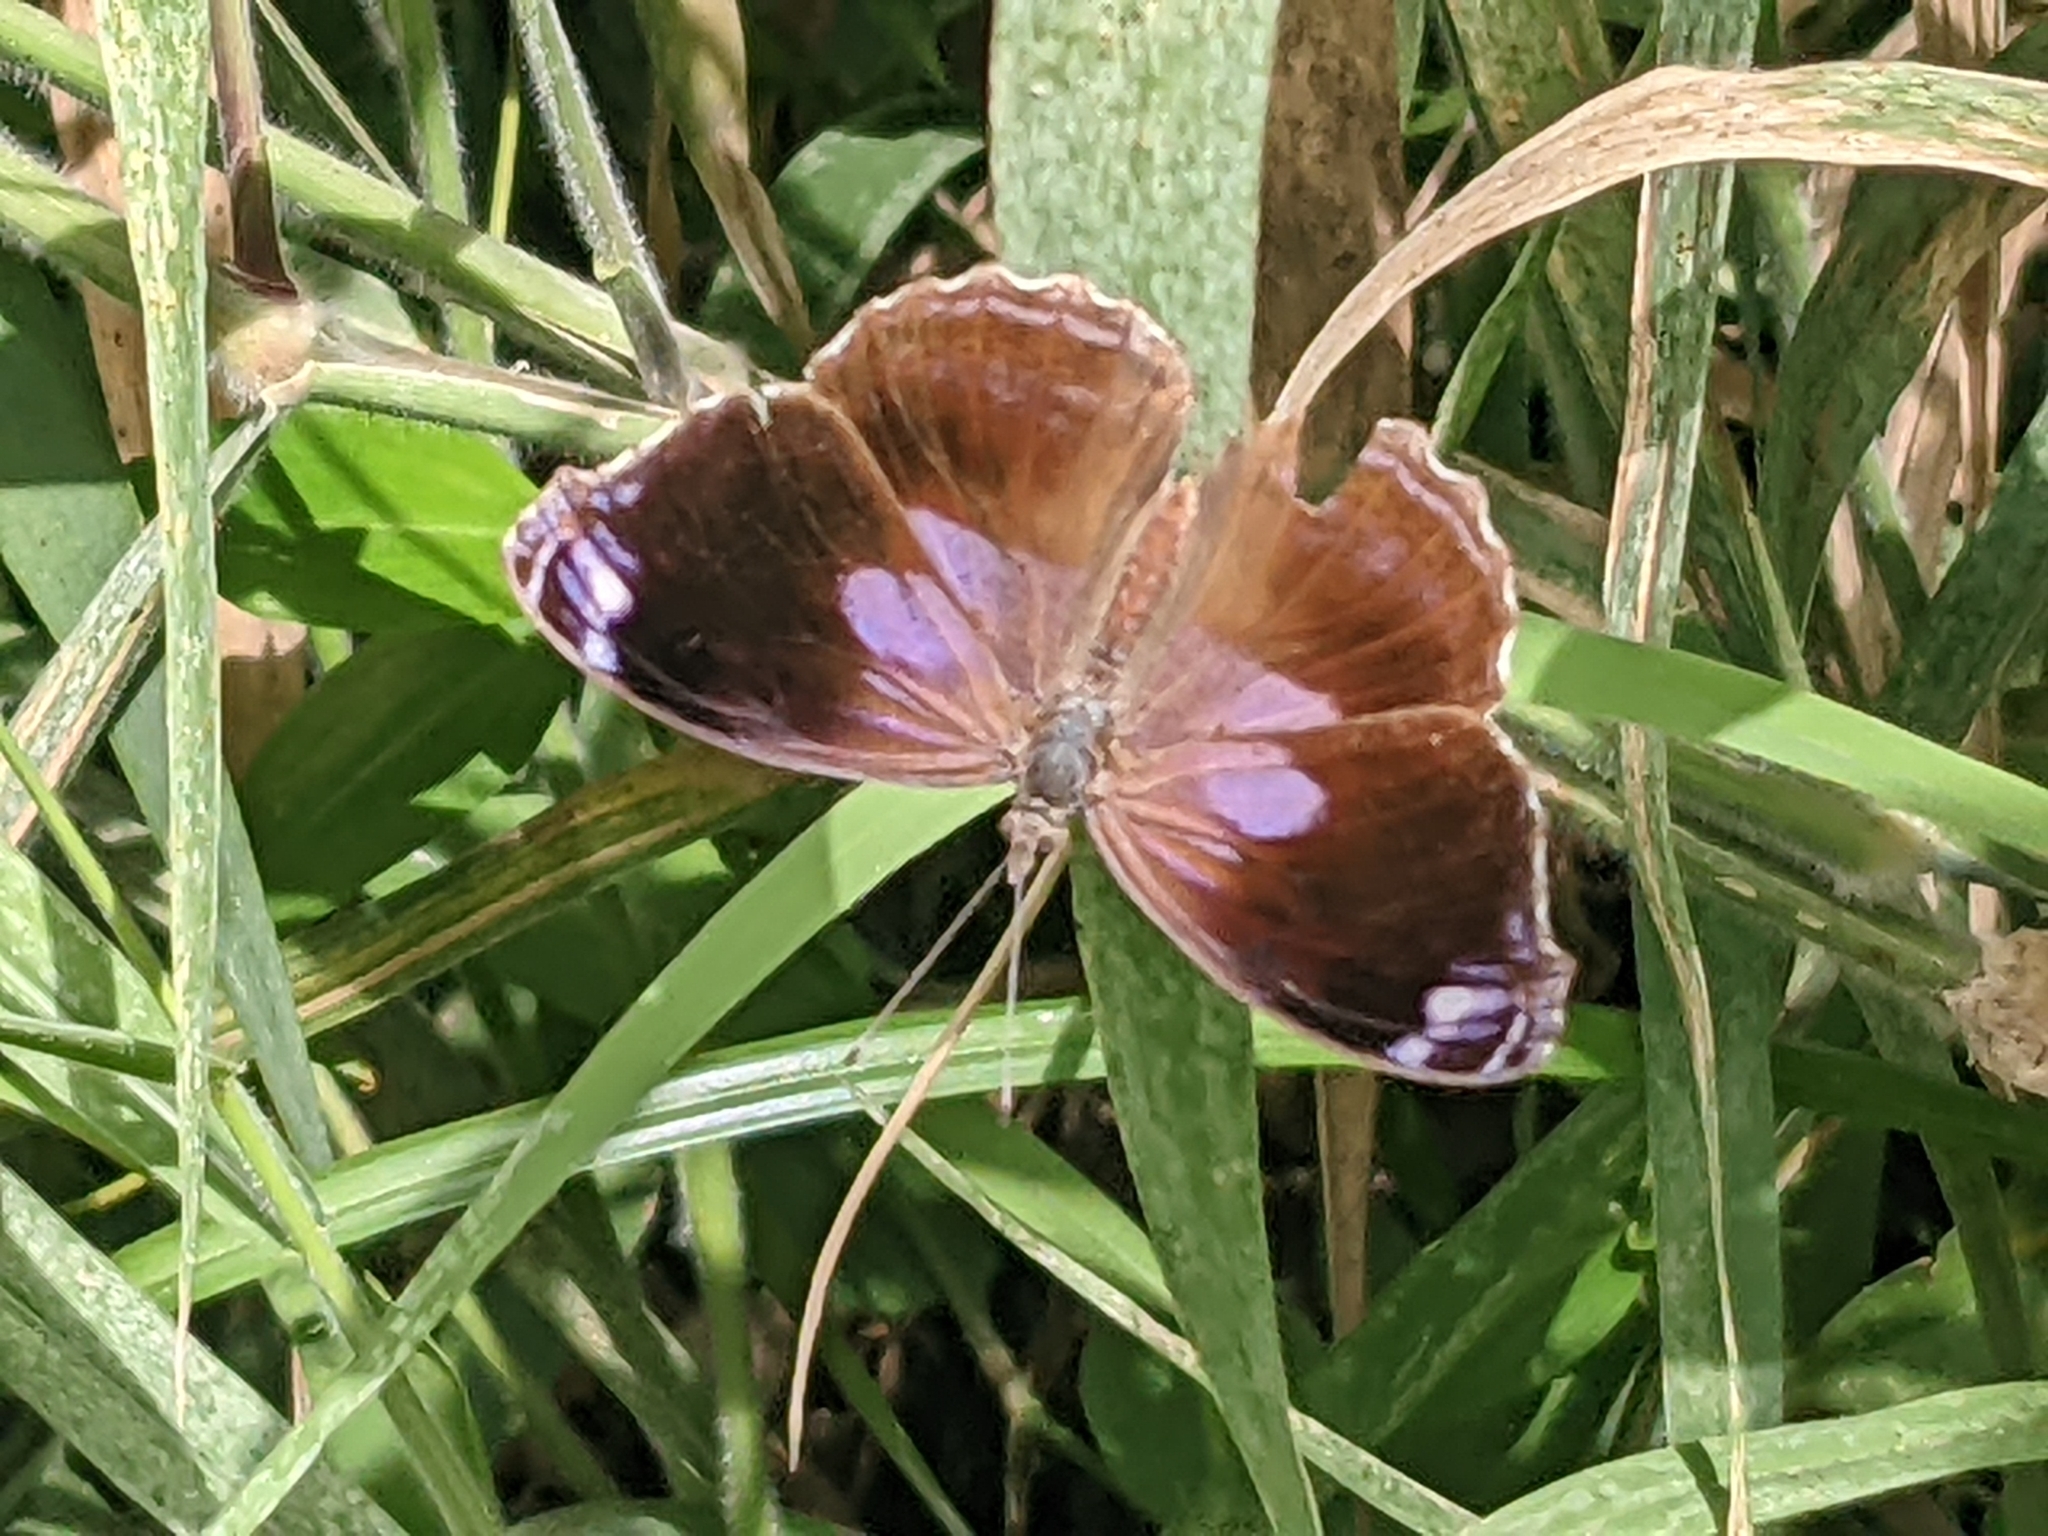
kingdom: Animalia
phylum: Arthropoda
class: Insecta
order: Lepidoptera
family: Nymphalidae
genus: Myscelia
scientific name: Myscelia cyananthe
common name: Blackened bluewing
